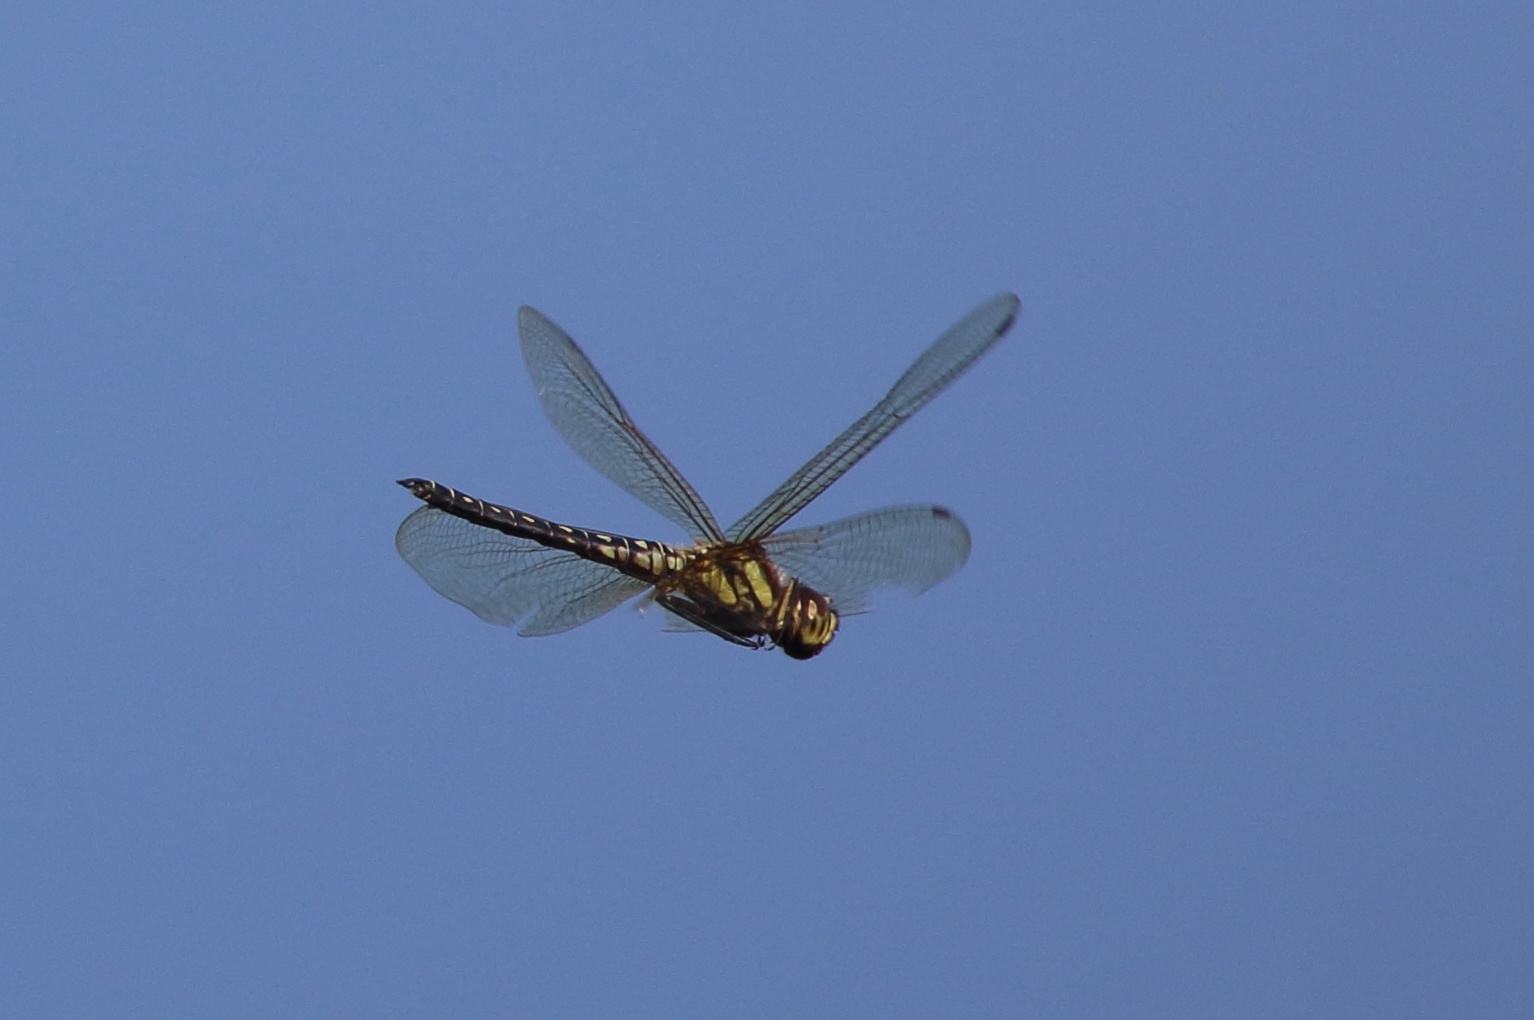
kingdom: Animalia
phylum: Arthropoda
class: Insecta
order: Odonata
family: Libellulidae
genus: Hydrobasileus
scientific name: Hydrobasileus brevistylus
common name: Water prince
